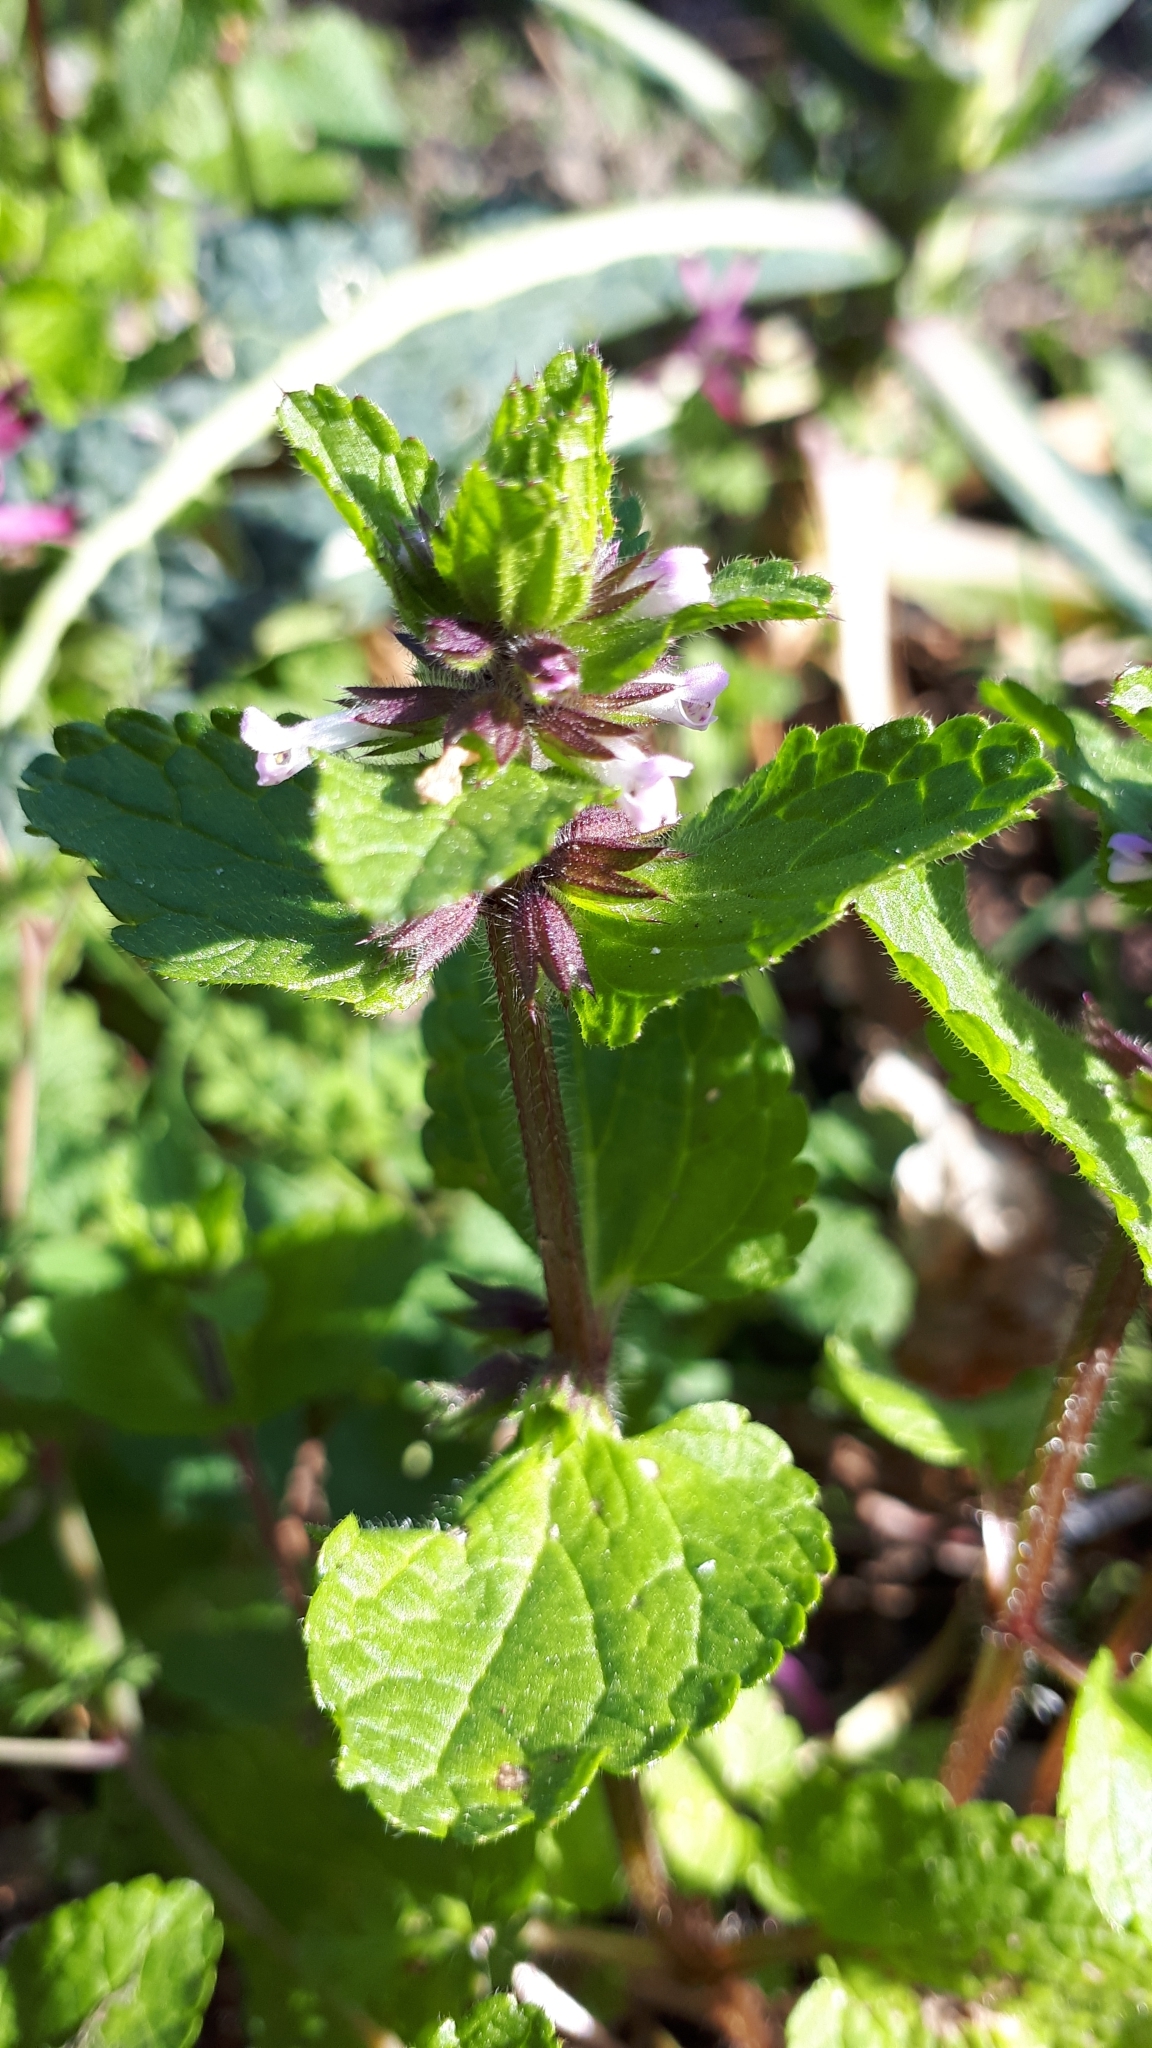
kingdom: Plantae
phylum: Tracheophyta
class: Magnoliopsida
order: Lamiales
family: Lamiaceae
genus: Stachys
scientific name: Stachys arvensis
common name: Field woundwort
